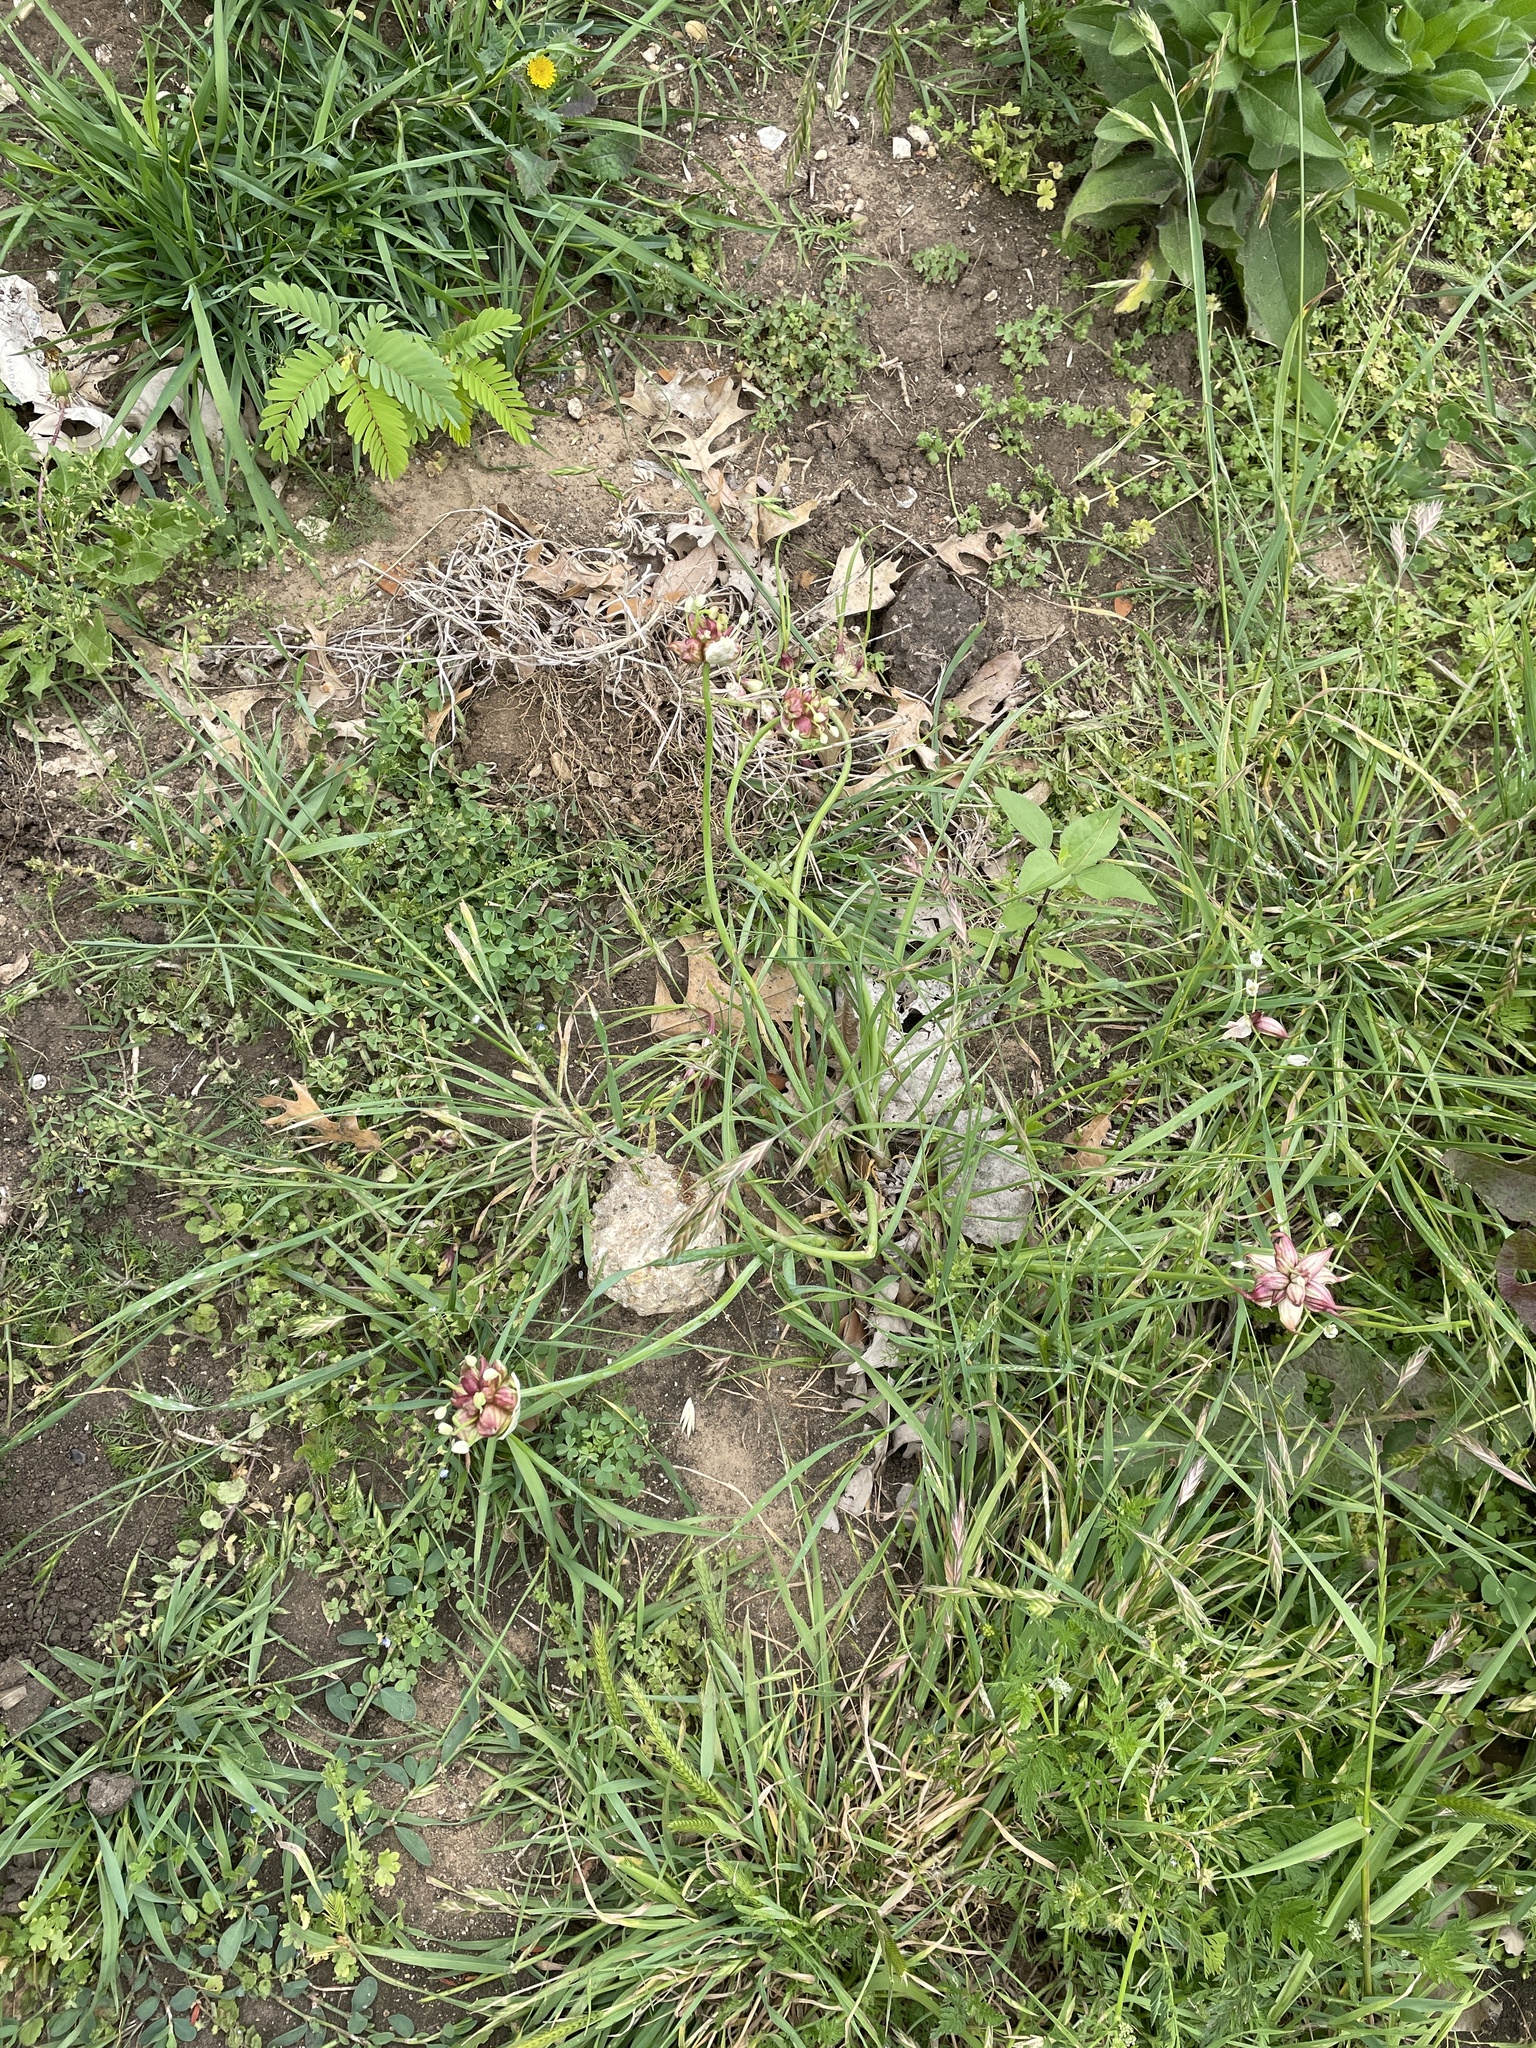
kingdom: Plantae
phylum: Tracheophyta
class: Liliopsida
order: Asparagales
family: Amaryllidaceae
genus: Allium
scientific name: Allium canadense
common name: Meadow garlic
